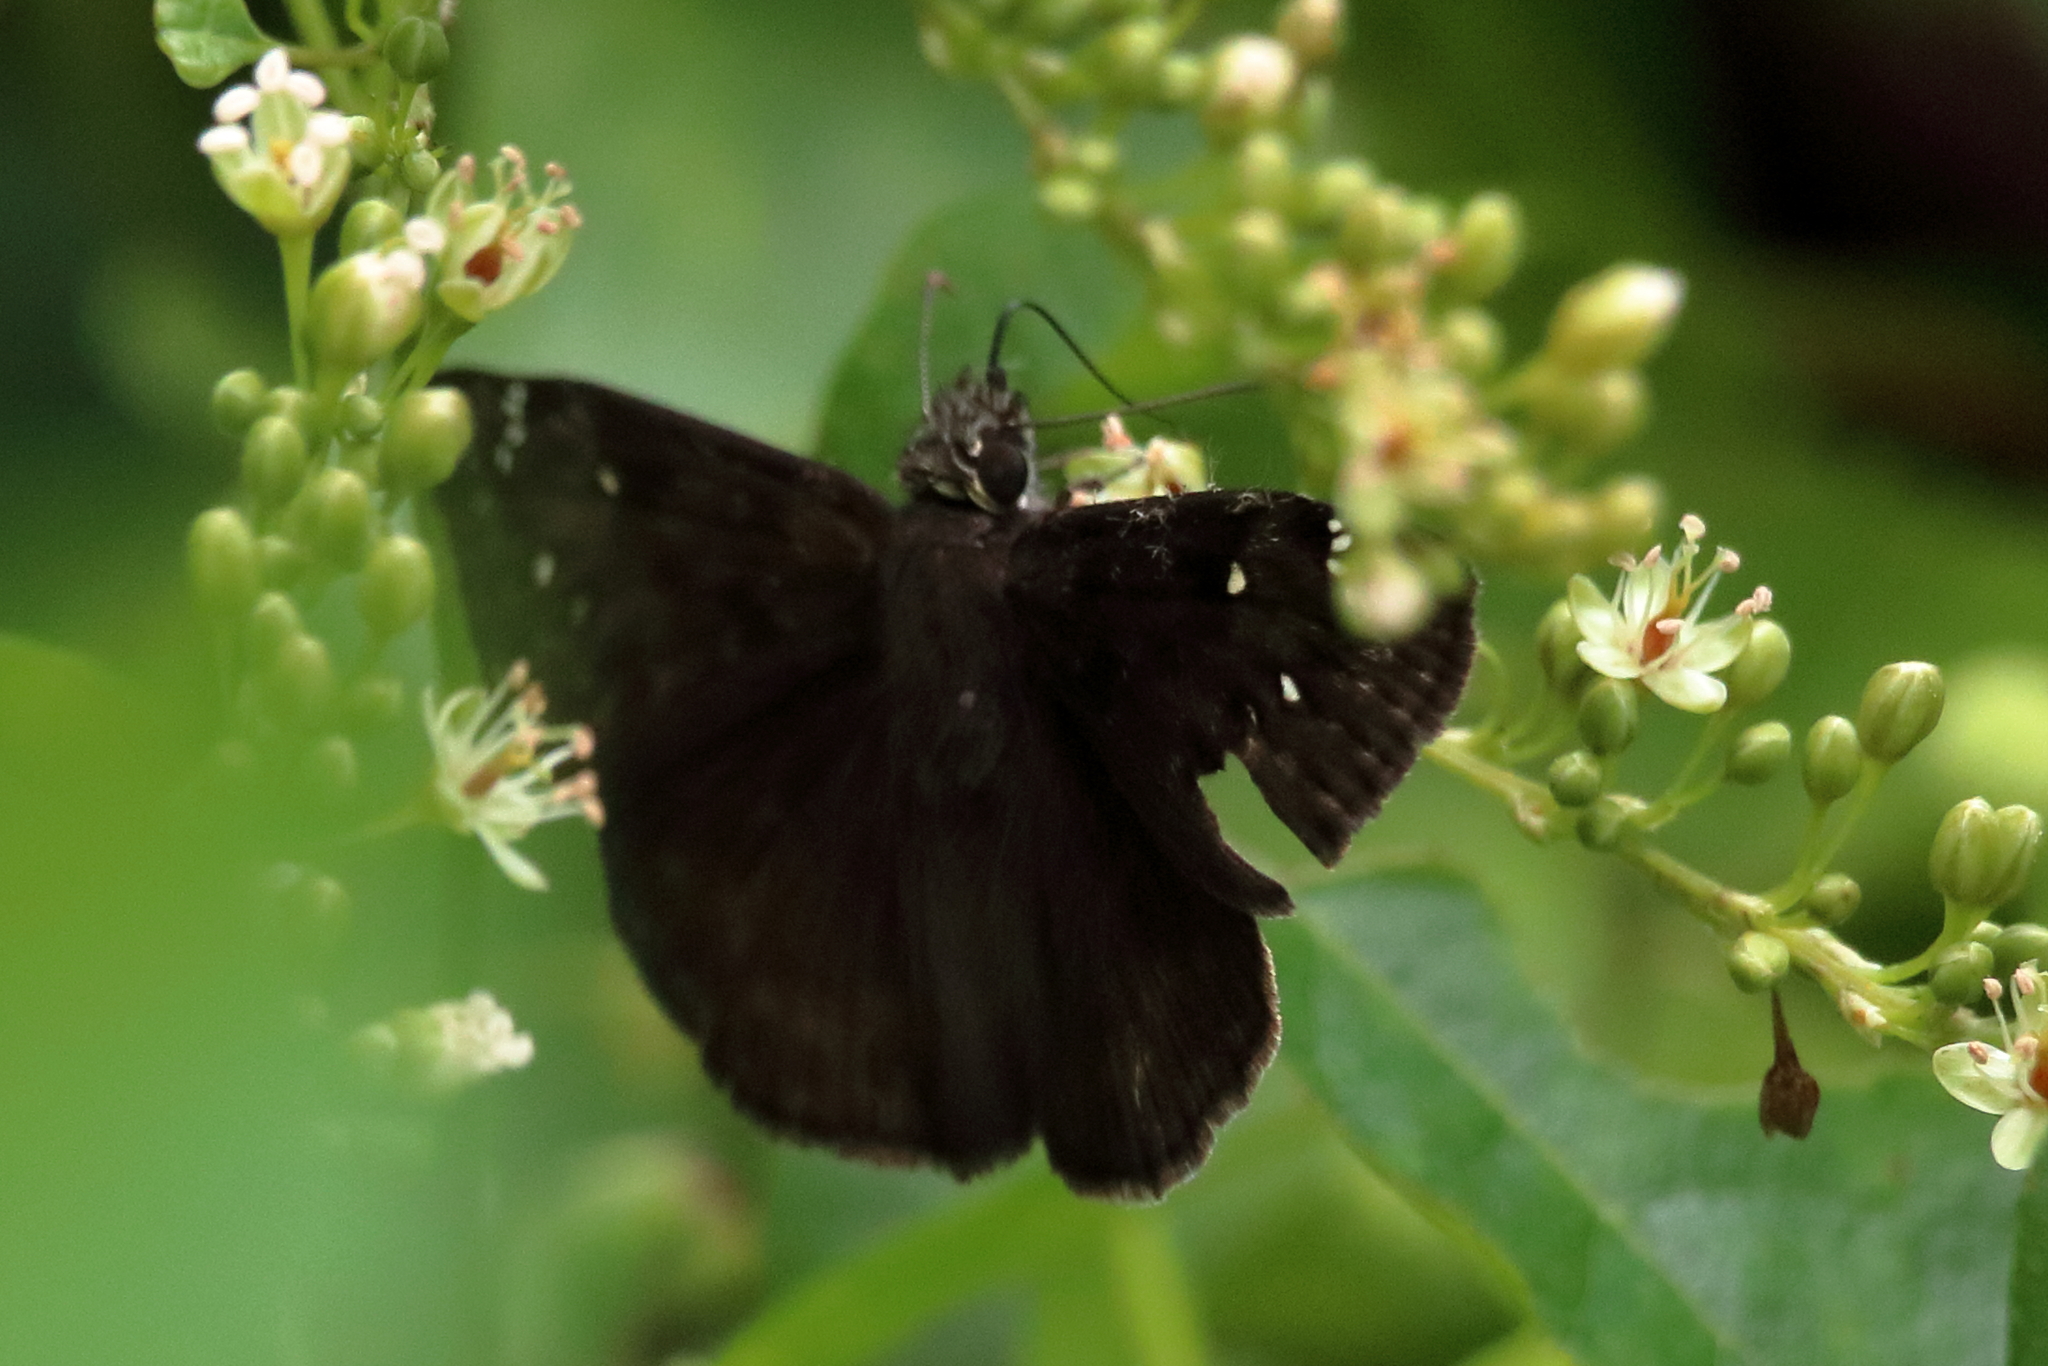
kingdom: Animalia
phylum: Arthropoda
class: Insecta
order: Lepidoptera
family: Hesperiidae
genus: Erynnis
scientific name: Erynnis horatius
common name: Horace's duskywing
